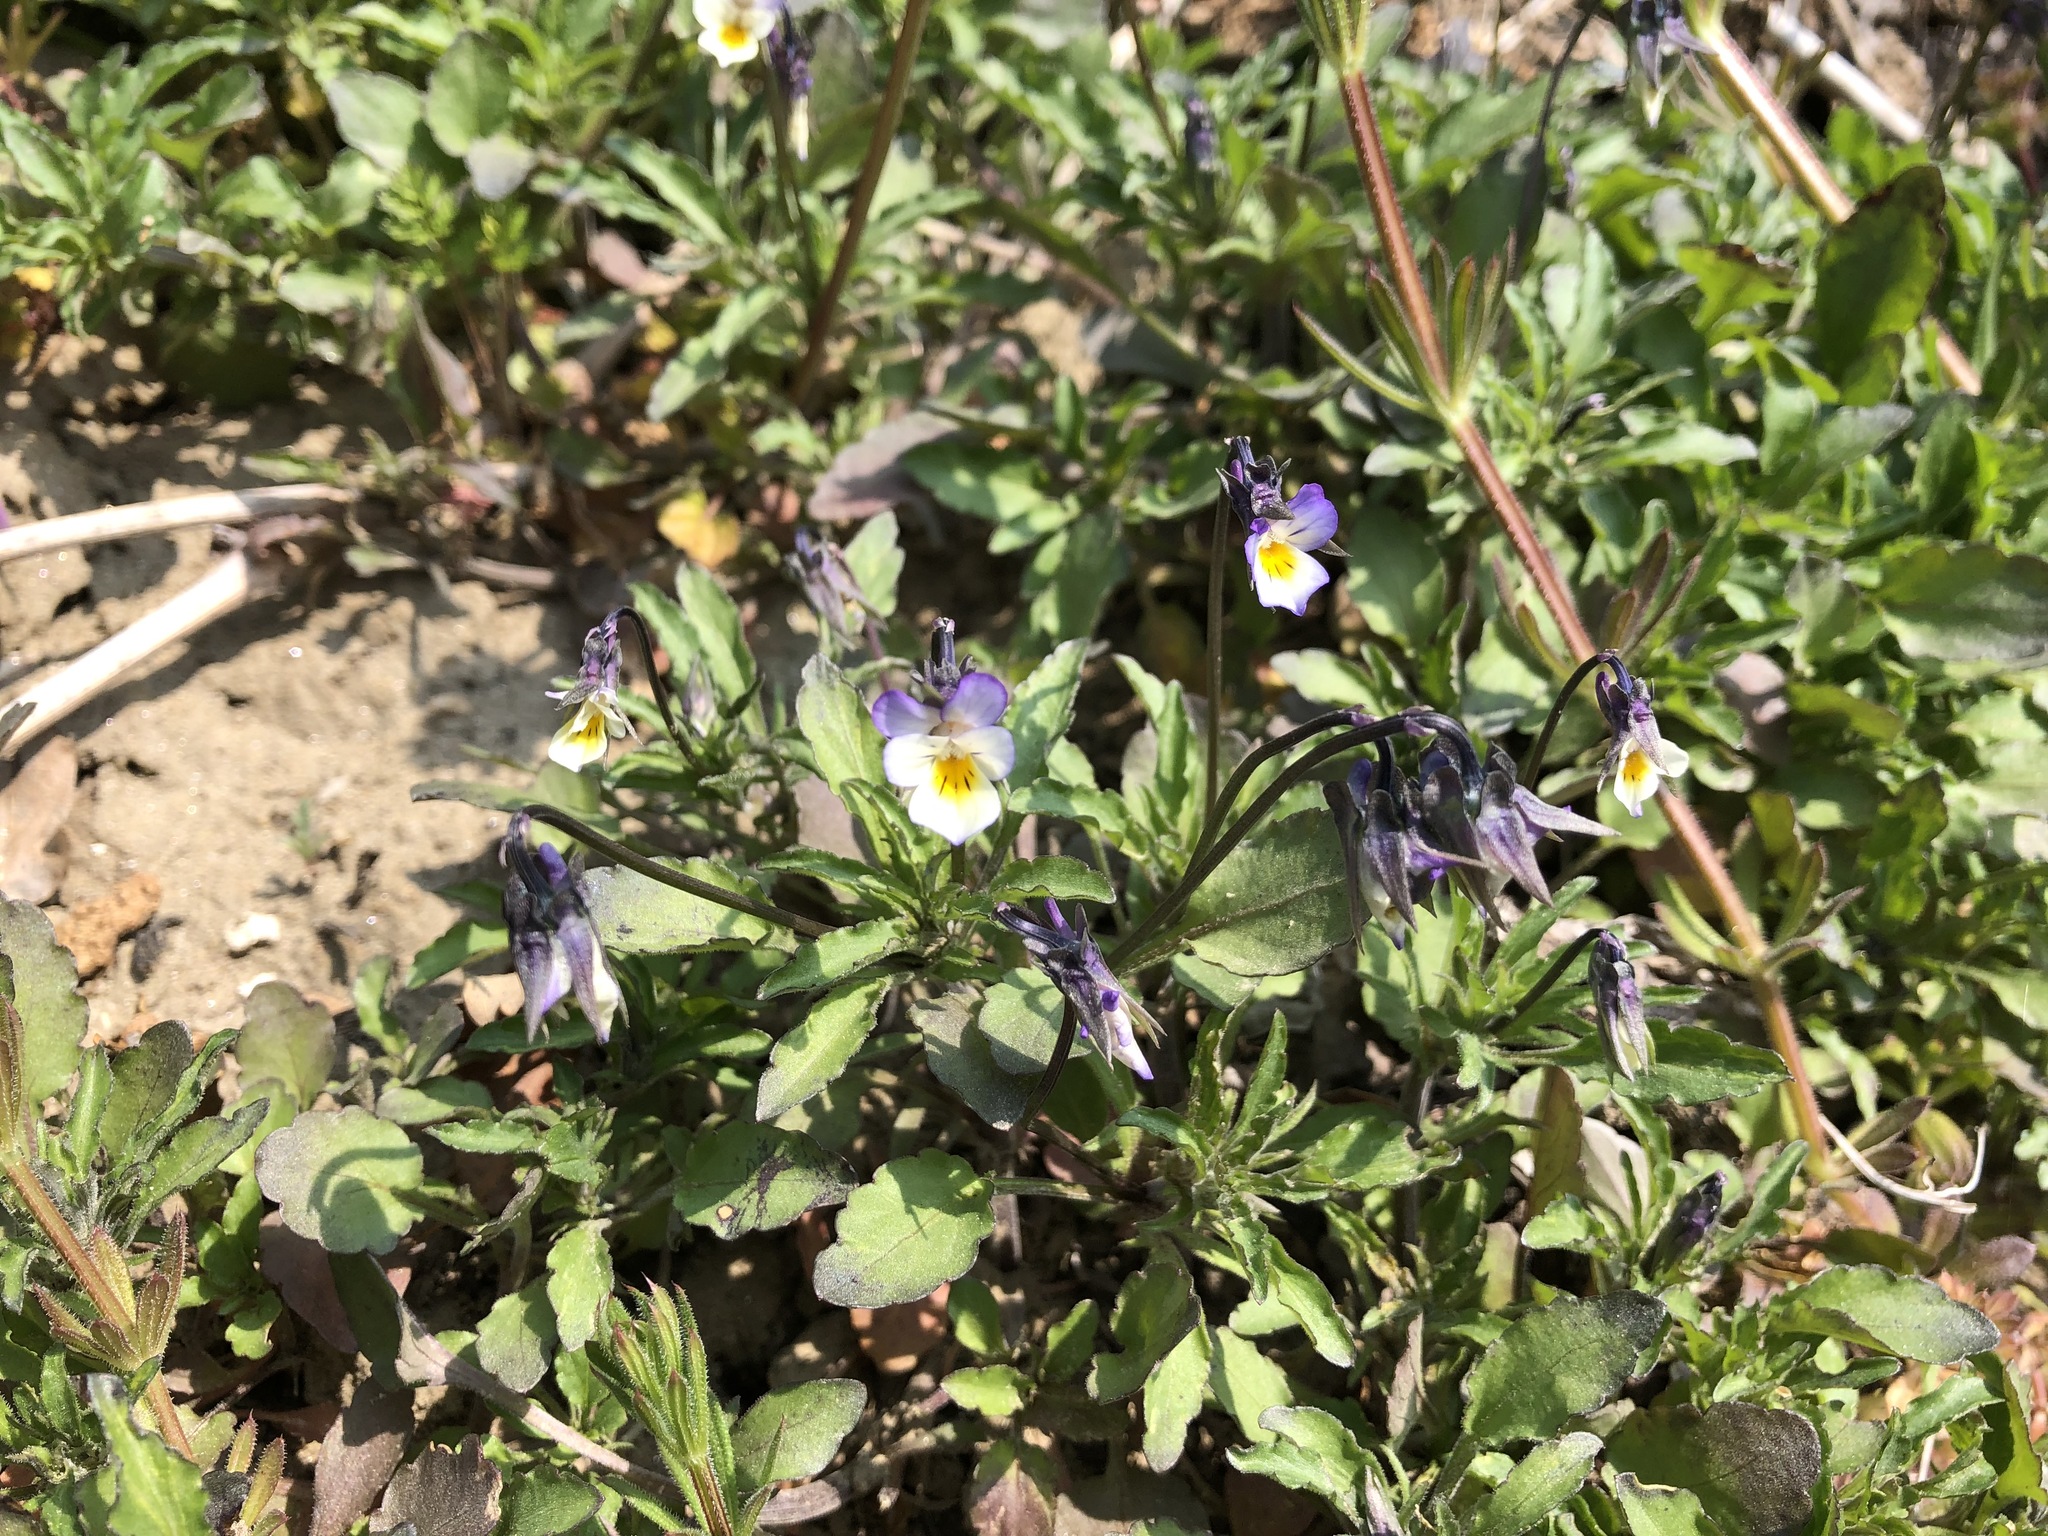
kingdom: Plantae
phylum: Tracheophyta
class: Magnoliopsida
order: Malpighiales
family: Violaceae
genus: Viola
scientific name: Viola arvensis
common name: Field pansy
